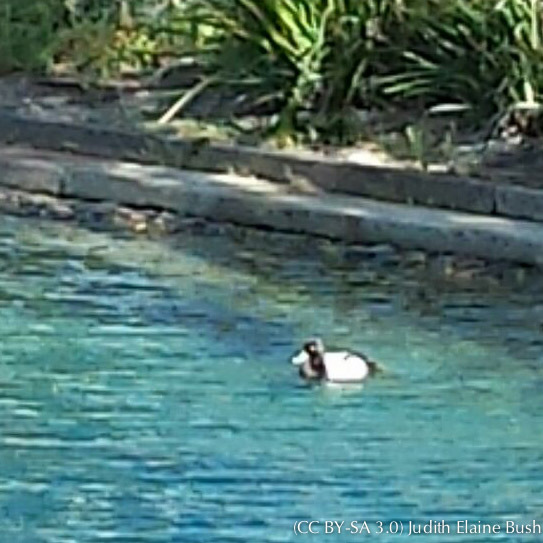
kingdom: Animalia
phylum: Chordata
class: Aves
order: Anseriformes
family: Anatidae
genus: Aythya
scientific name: Aythya affinis
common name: Lesser scaup
